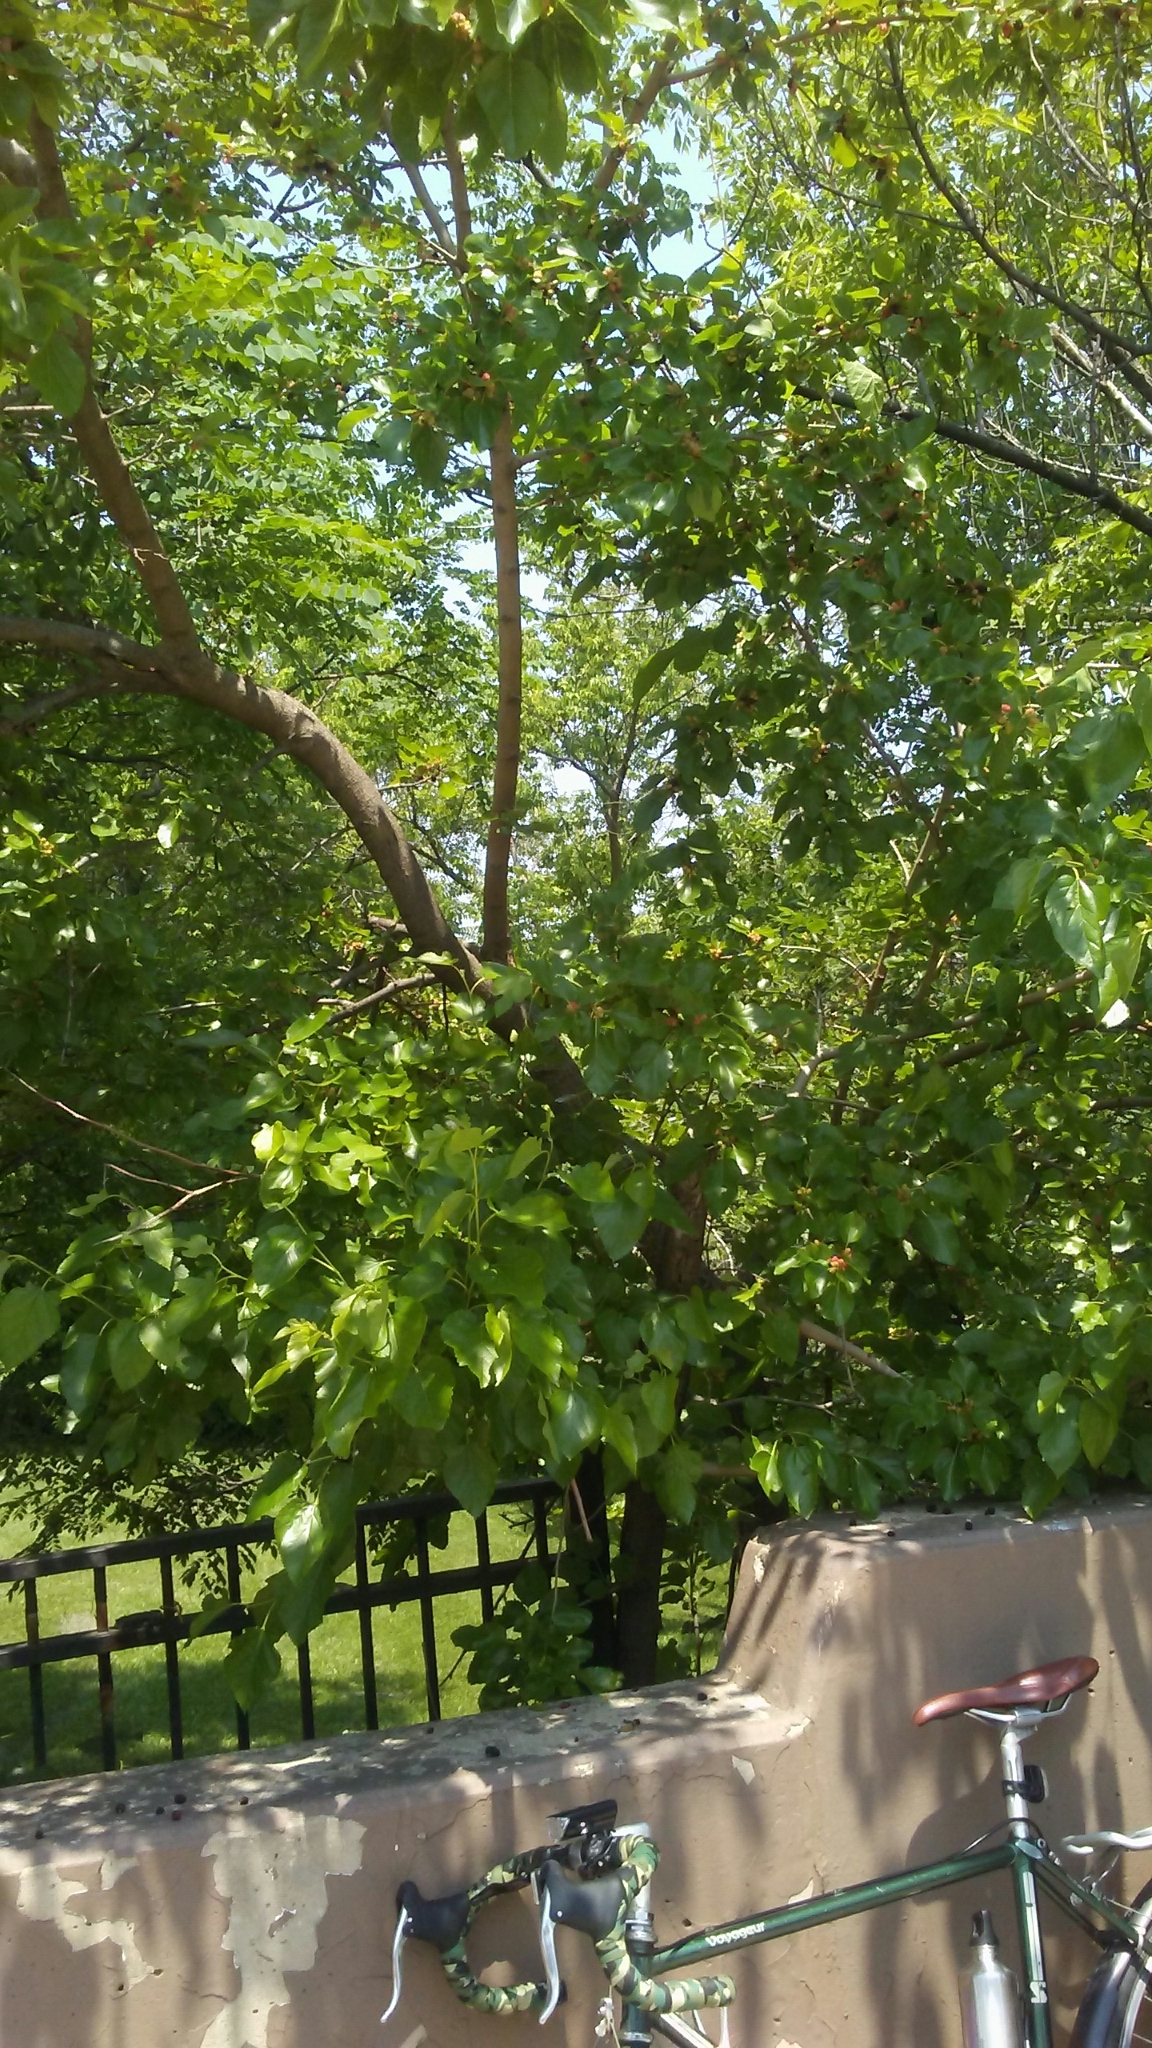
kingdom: Plantae
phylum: Tracheophyta
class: Magnoliopsida
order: Rosales
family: Moraceae
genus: Morus
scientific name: Morus alba
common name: White mulberry
